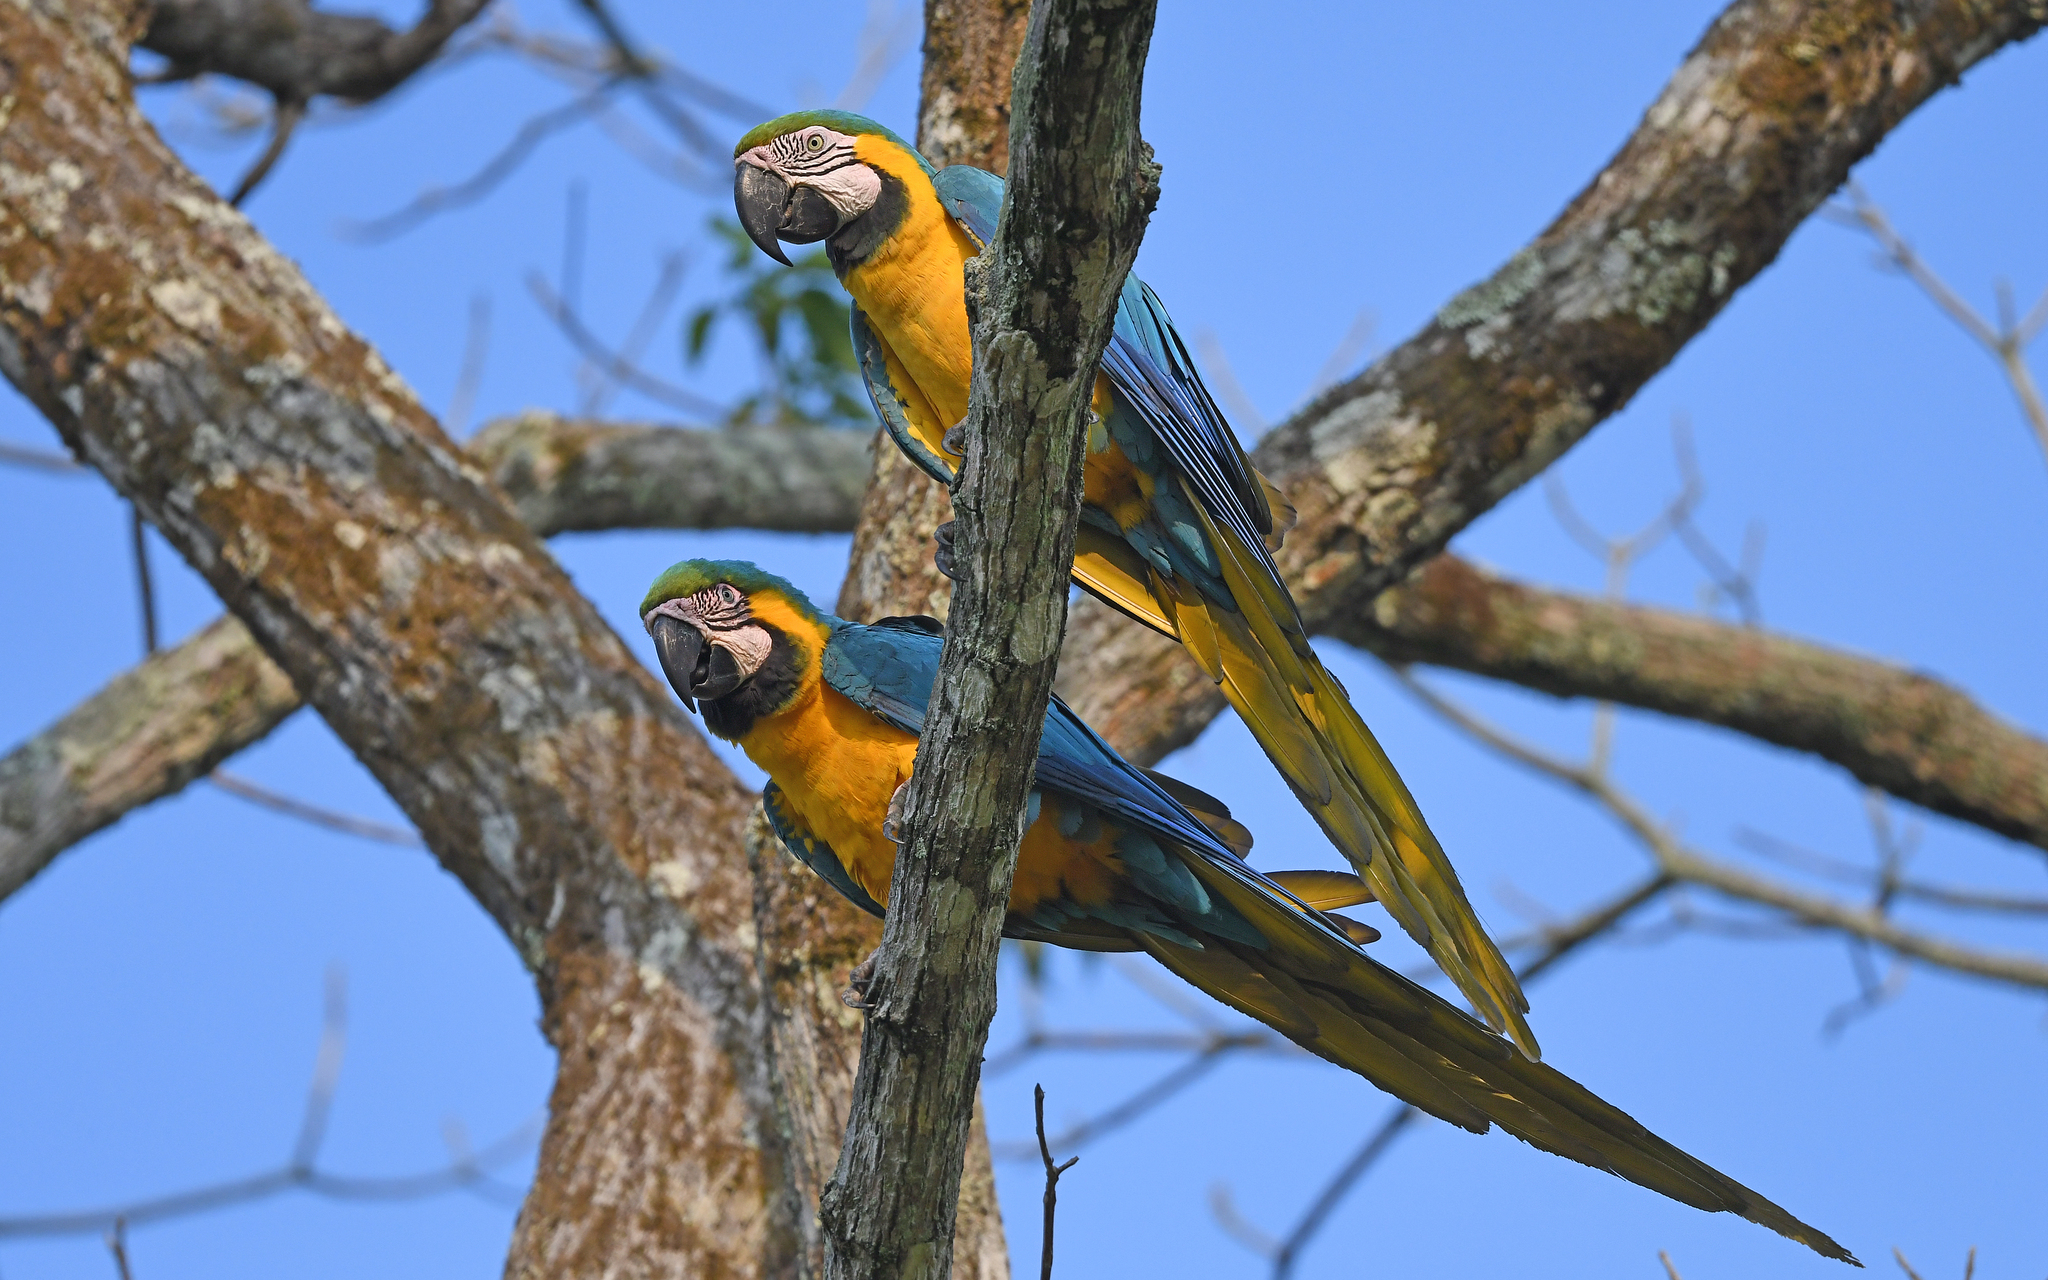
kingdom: Animalia
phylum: Chordata
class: Aves
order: Psittaciformes
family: Psittacidae
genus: Ara
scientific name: Ara ararauna
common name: Blue-and-yellow macaw
